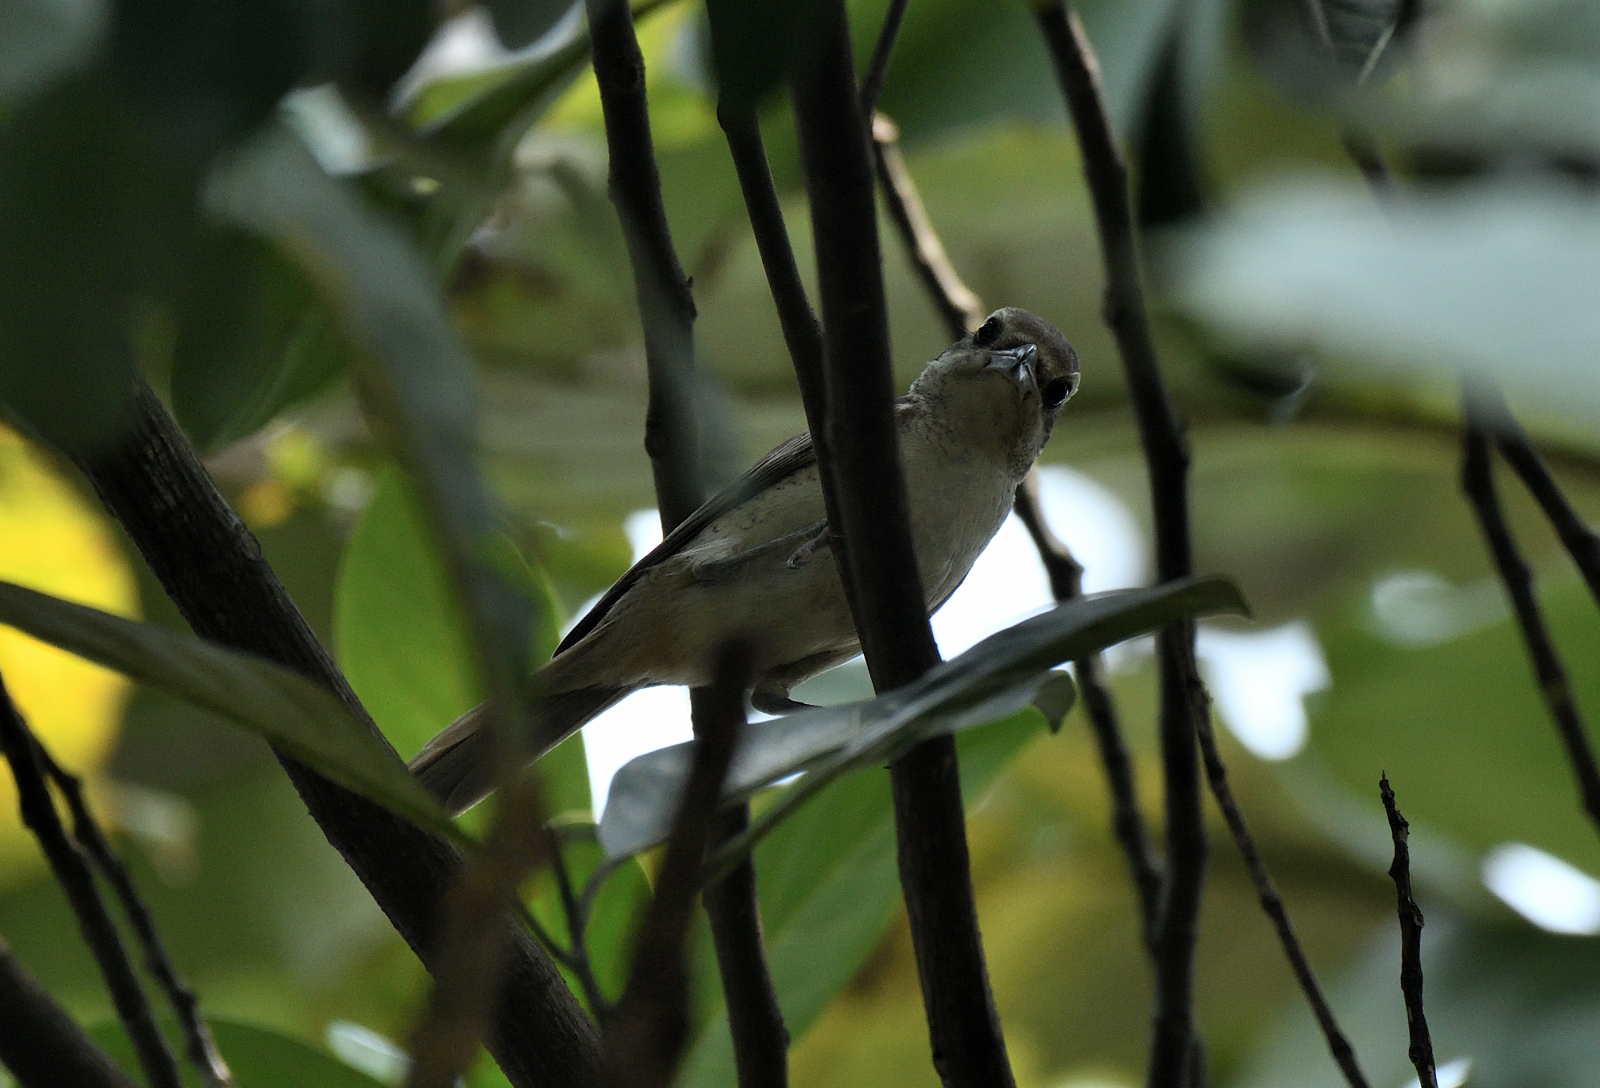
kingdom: Animalia
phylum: Chordata
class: Aves
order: Passeriformes
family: Laniidae
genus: Lanius
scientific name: Lanius cristatus
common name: Brown shrike
